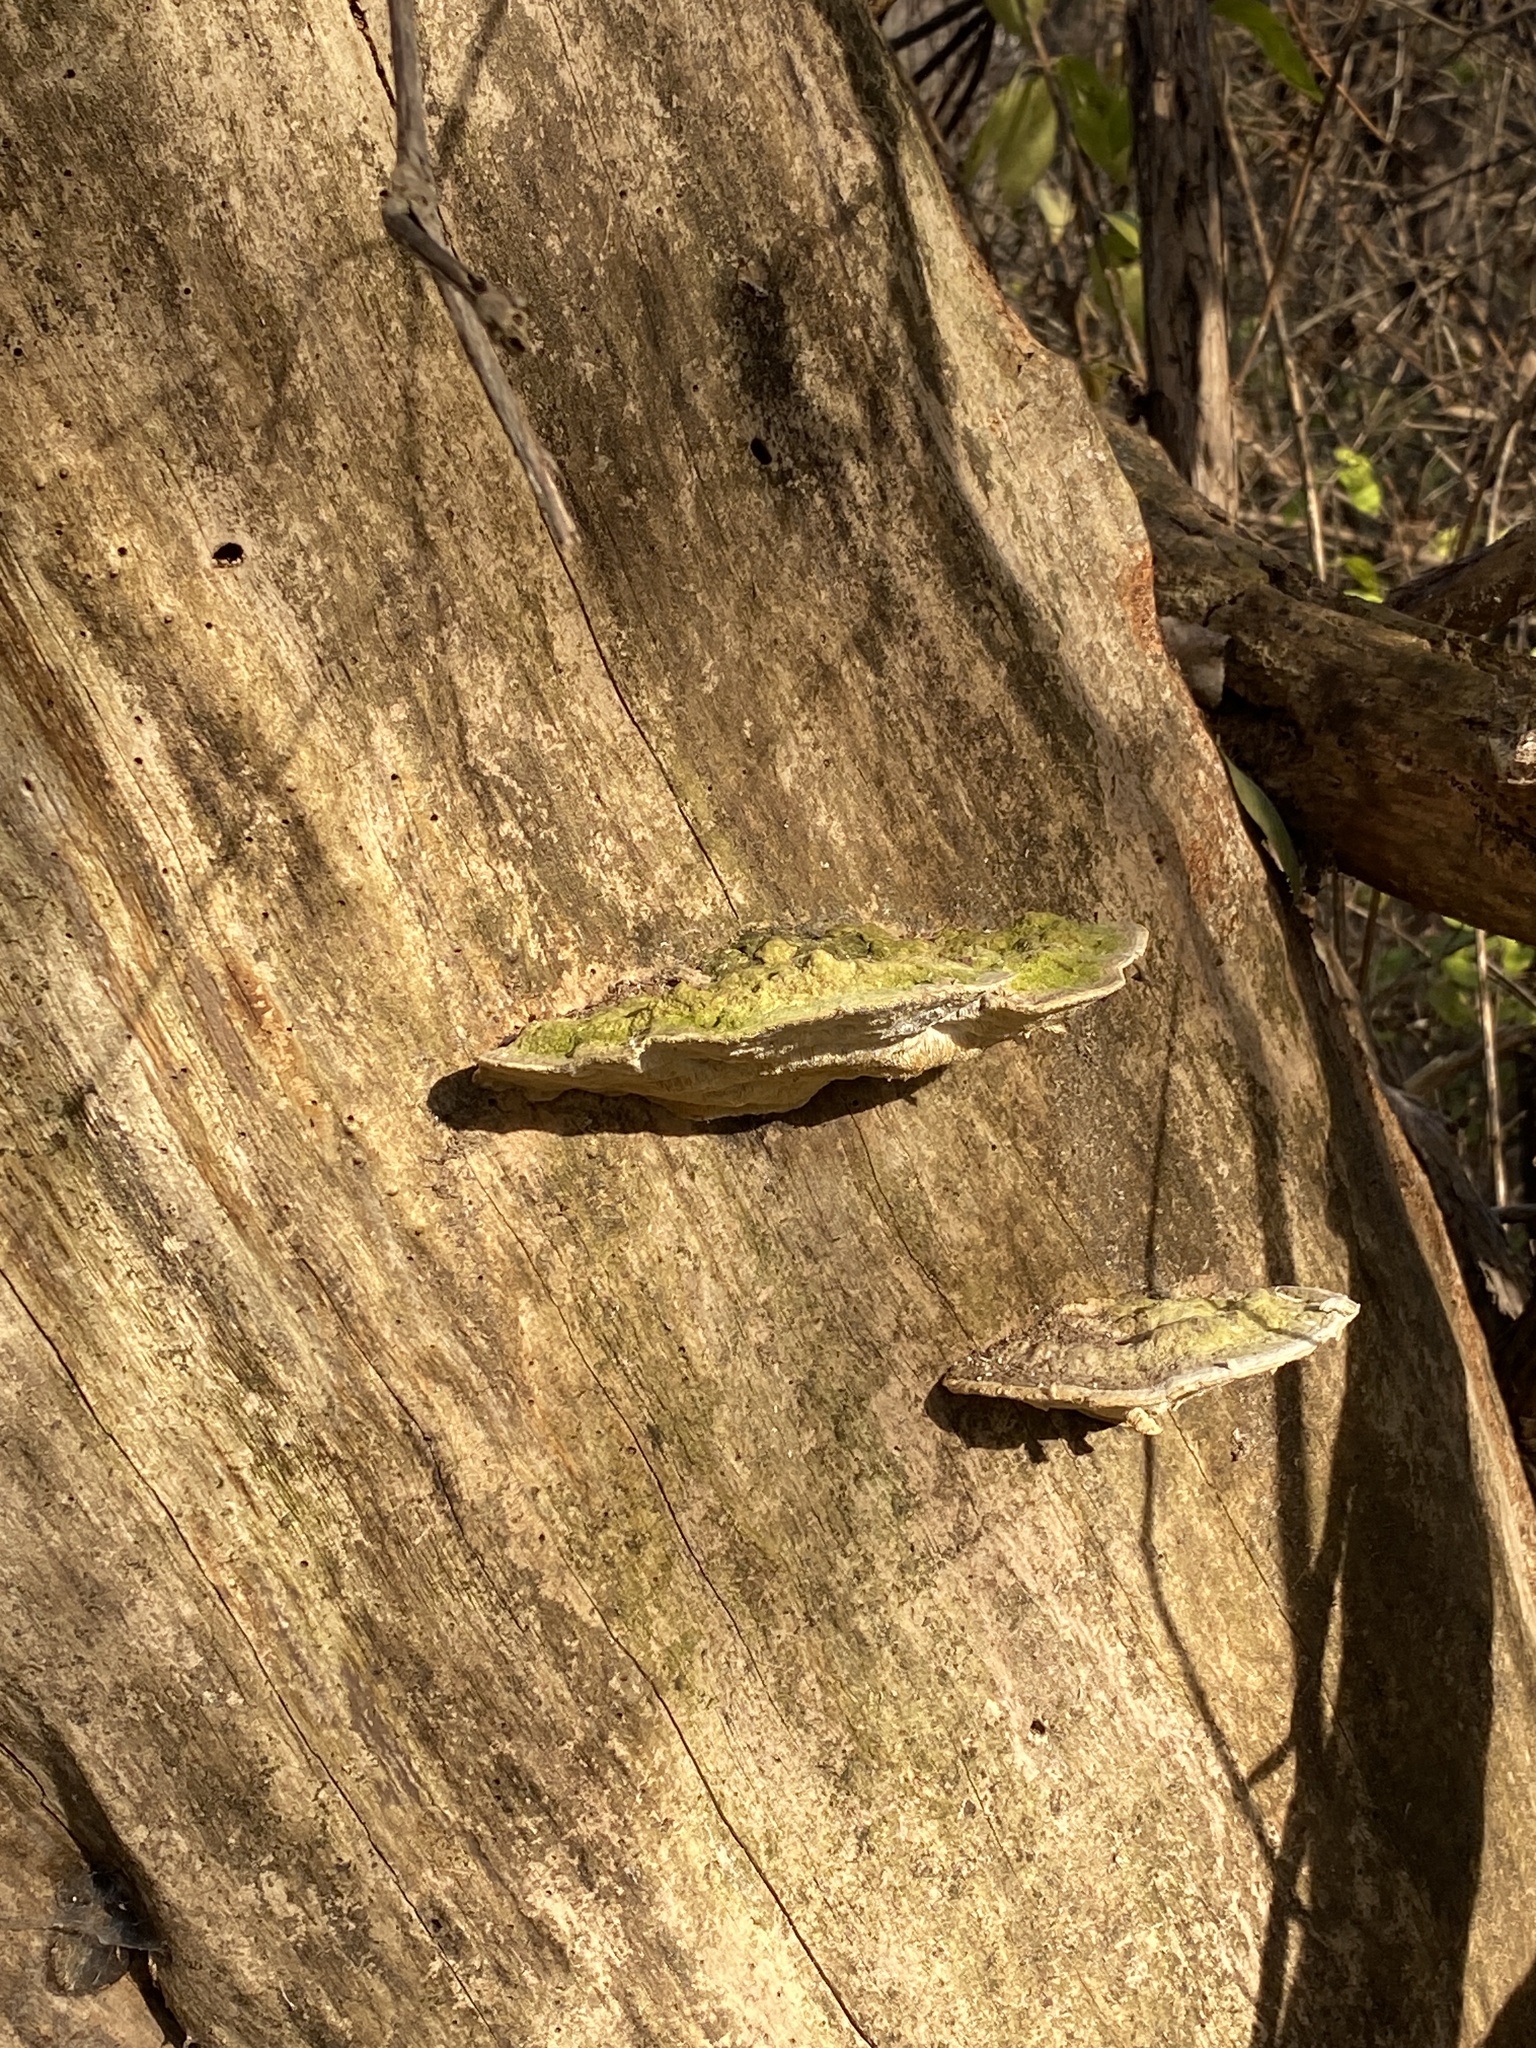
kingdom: Fungi
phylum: Basidiomycota
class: Agaricomycetes
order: Polyporales
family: Polyporaceae
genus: Trametes
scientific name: Trametes gibbosa
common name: Lumpy bracket
